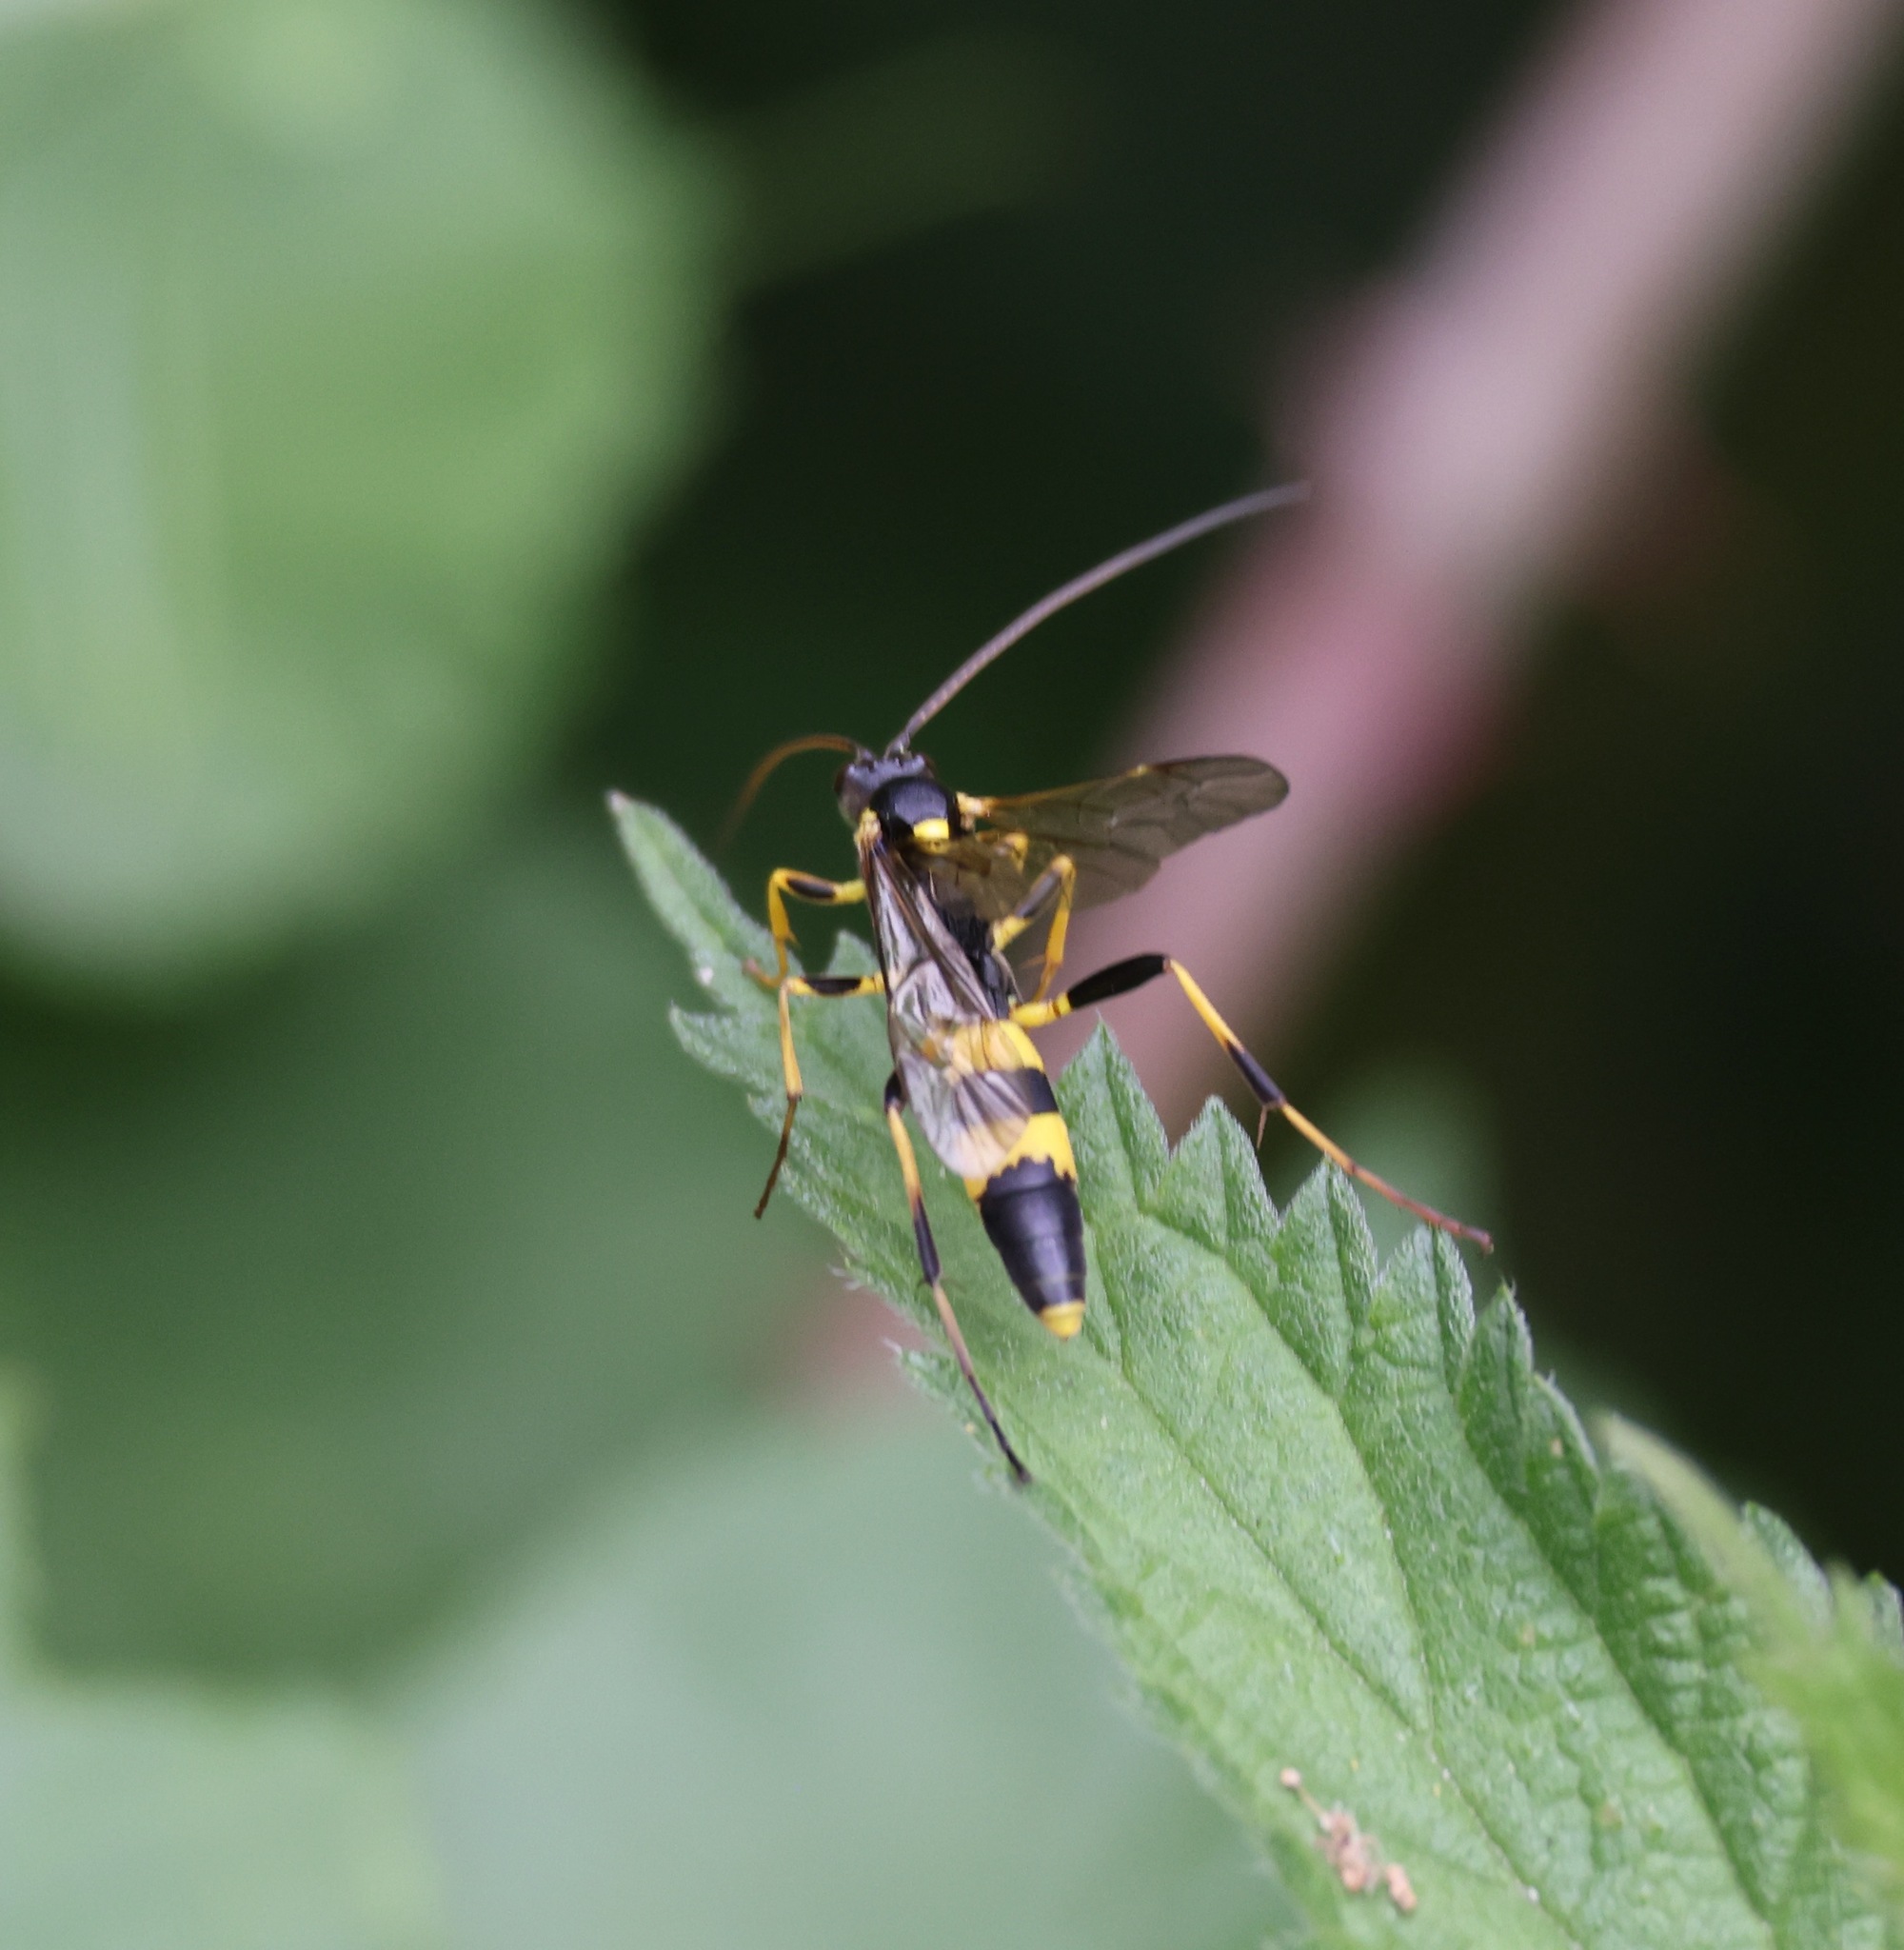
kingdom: Animalia
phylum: Arthropoda
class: Insecta
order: Hymenoptera
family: Ichneumonidae
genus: Amblyteles
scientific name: Amblyteles armatorius
